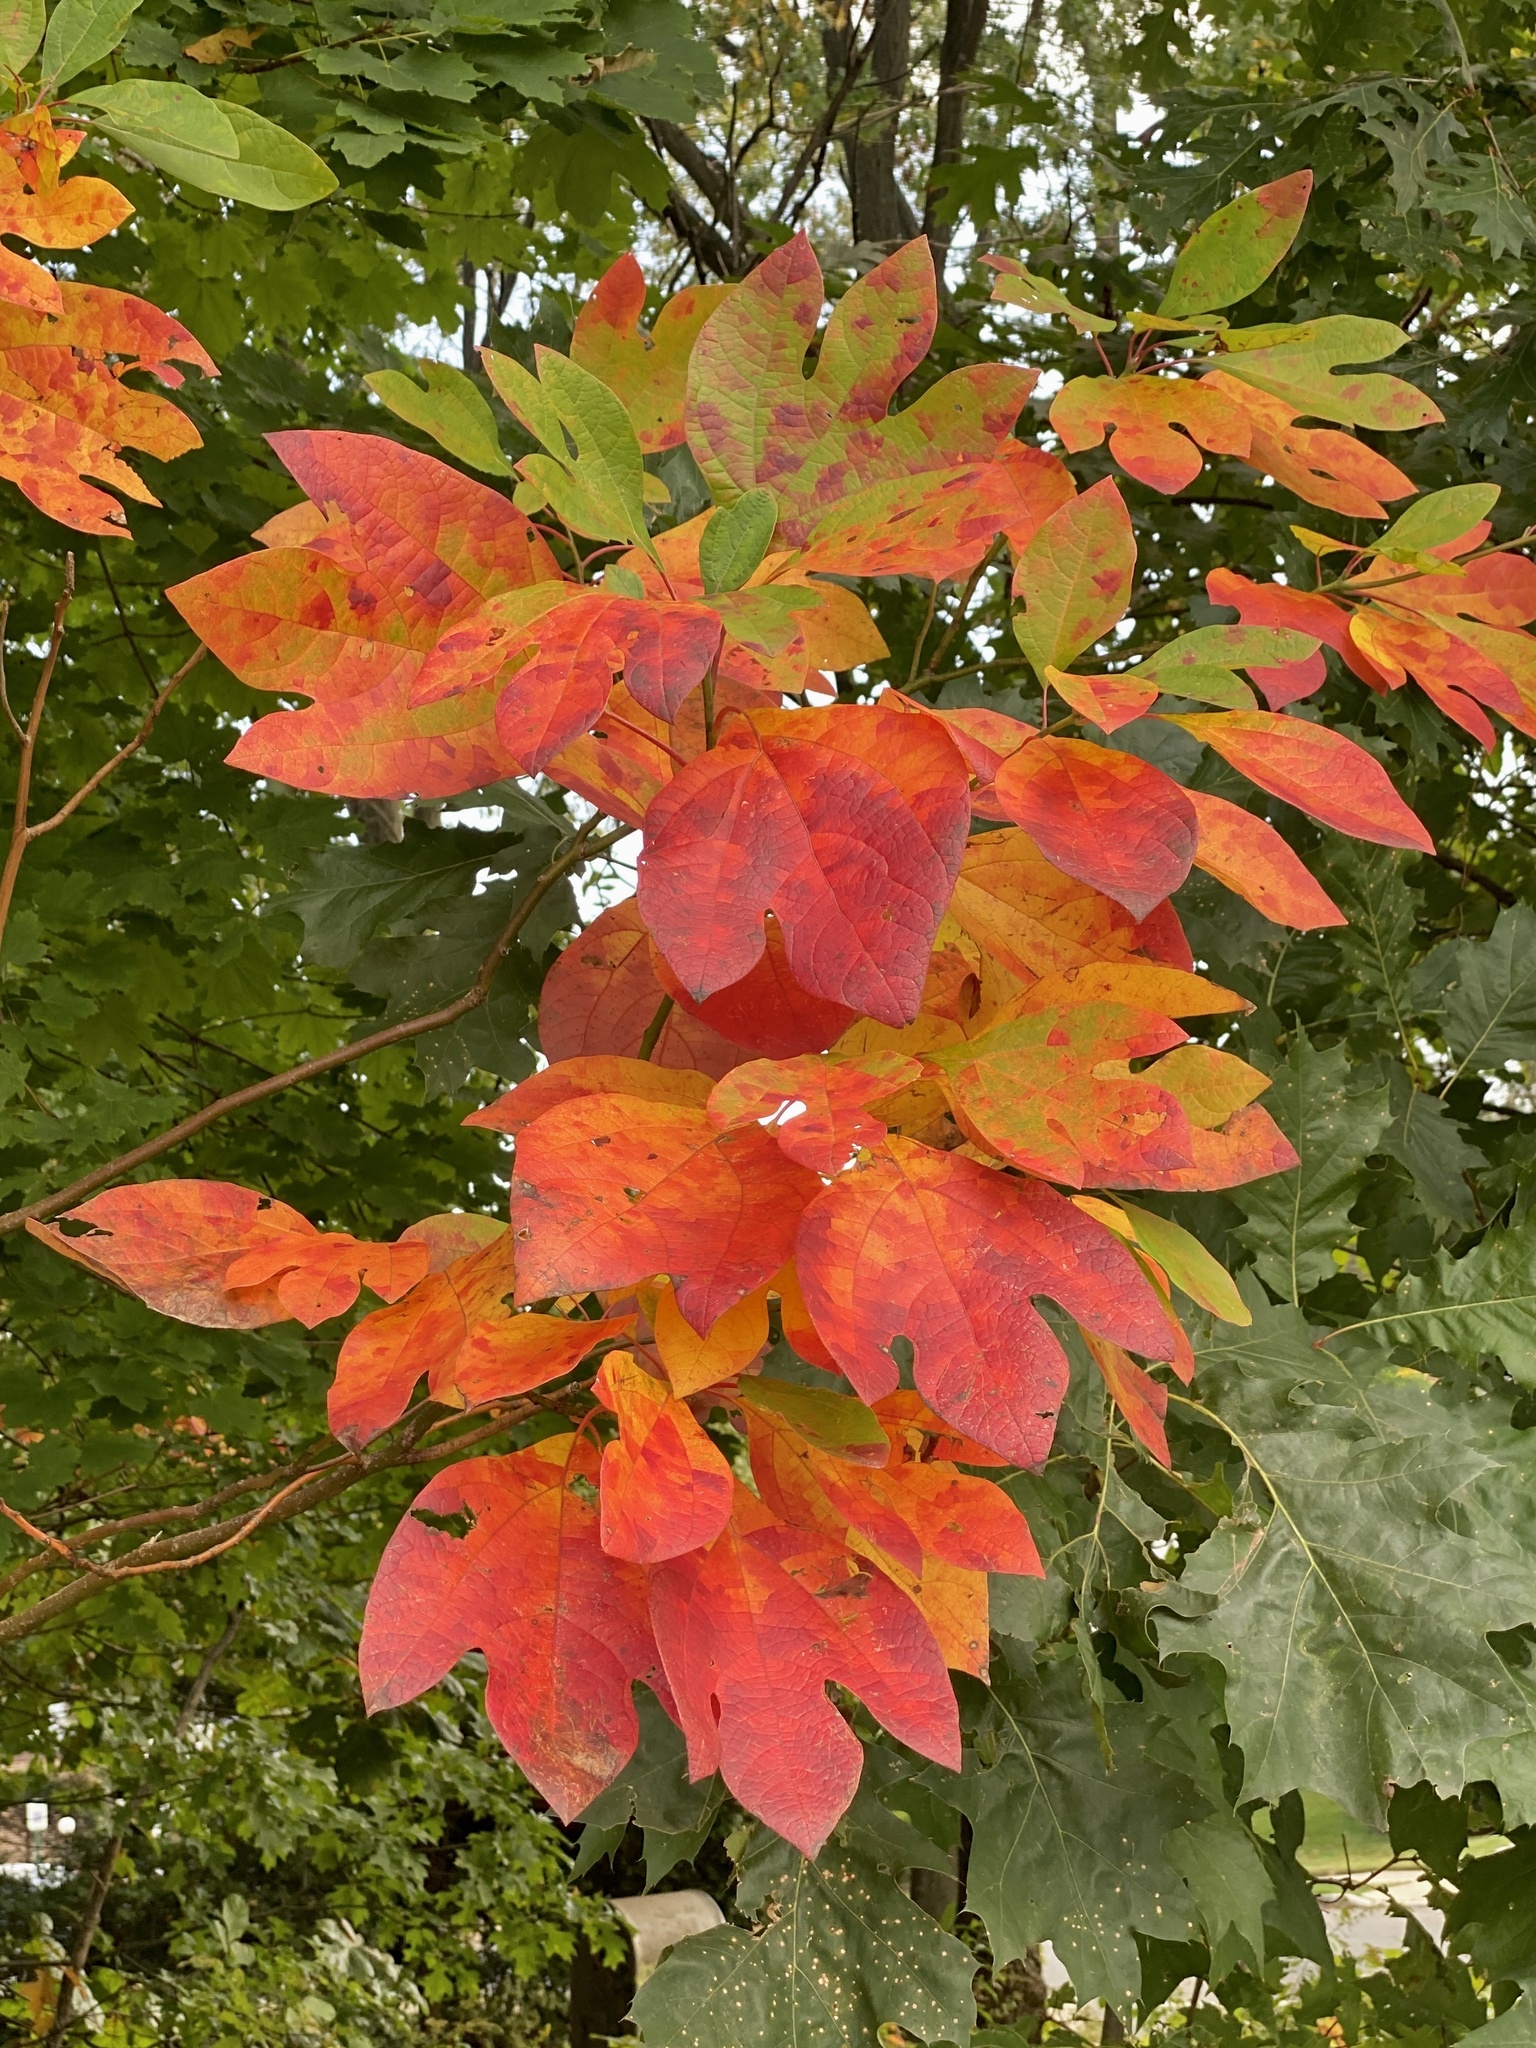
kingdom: Plantae
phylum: Tracheophyta
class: Magnoliopsida
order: Laurales
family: Lauraceae
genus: Sassafras
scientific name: Sassafras albidum
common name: Sassafras
